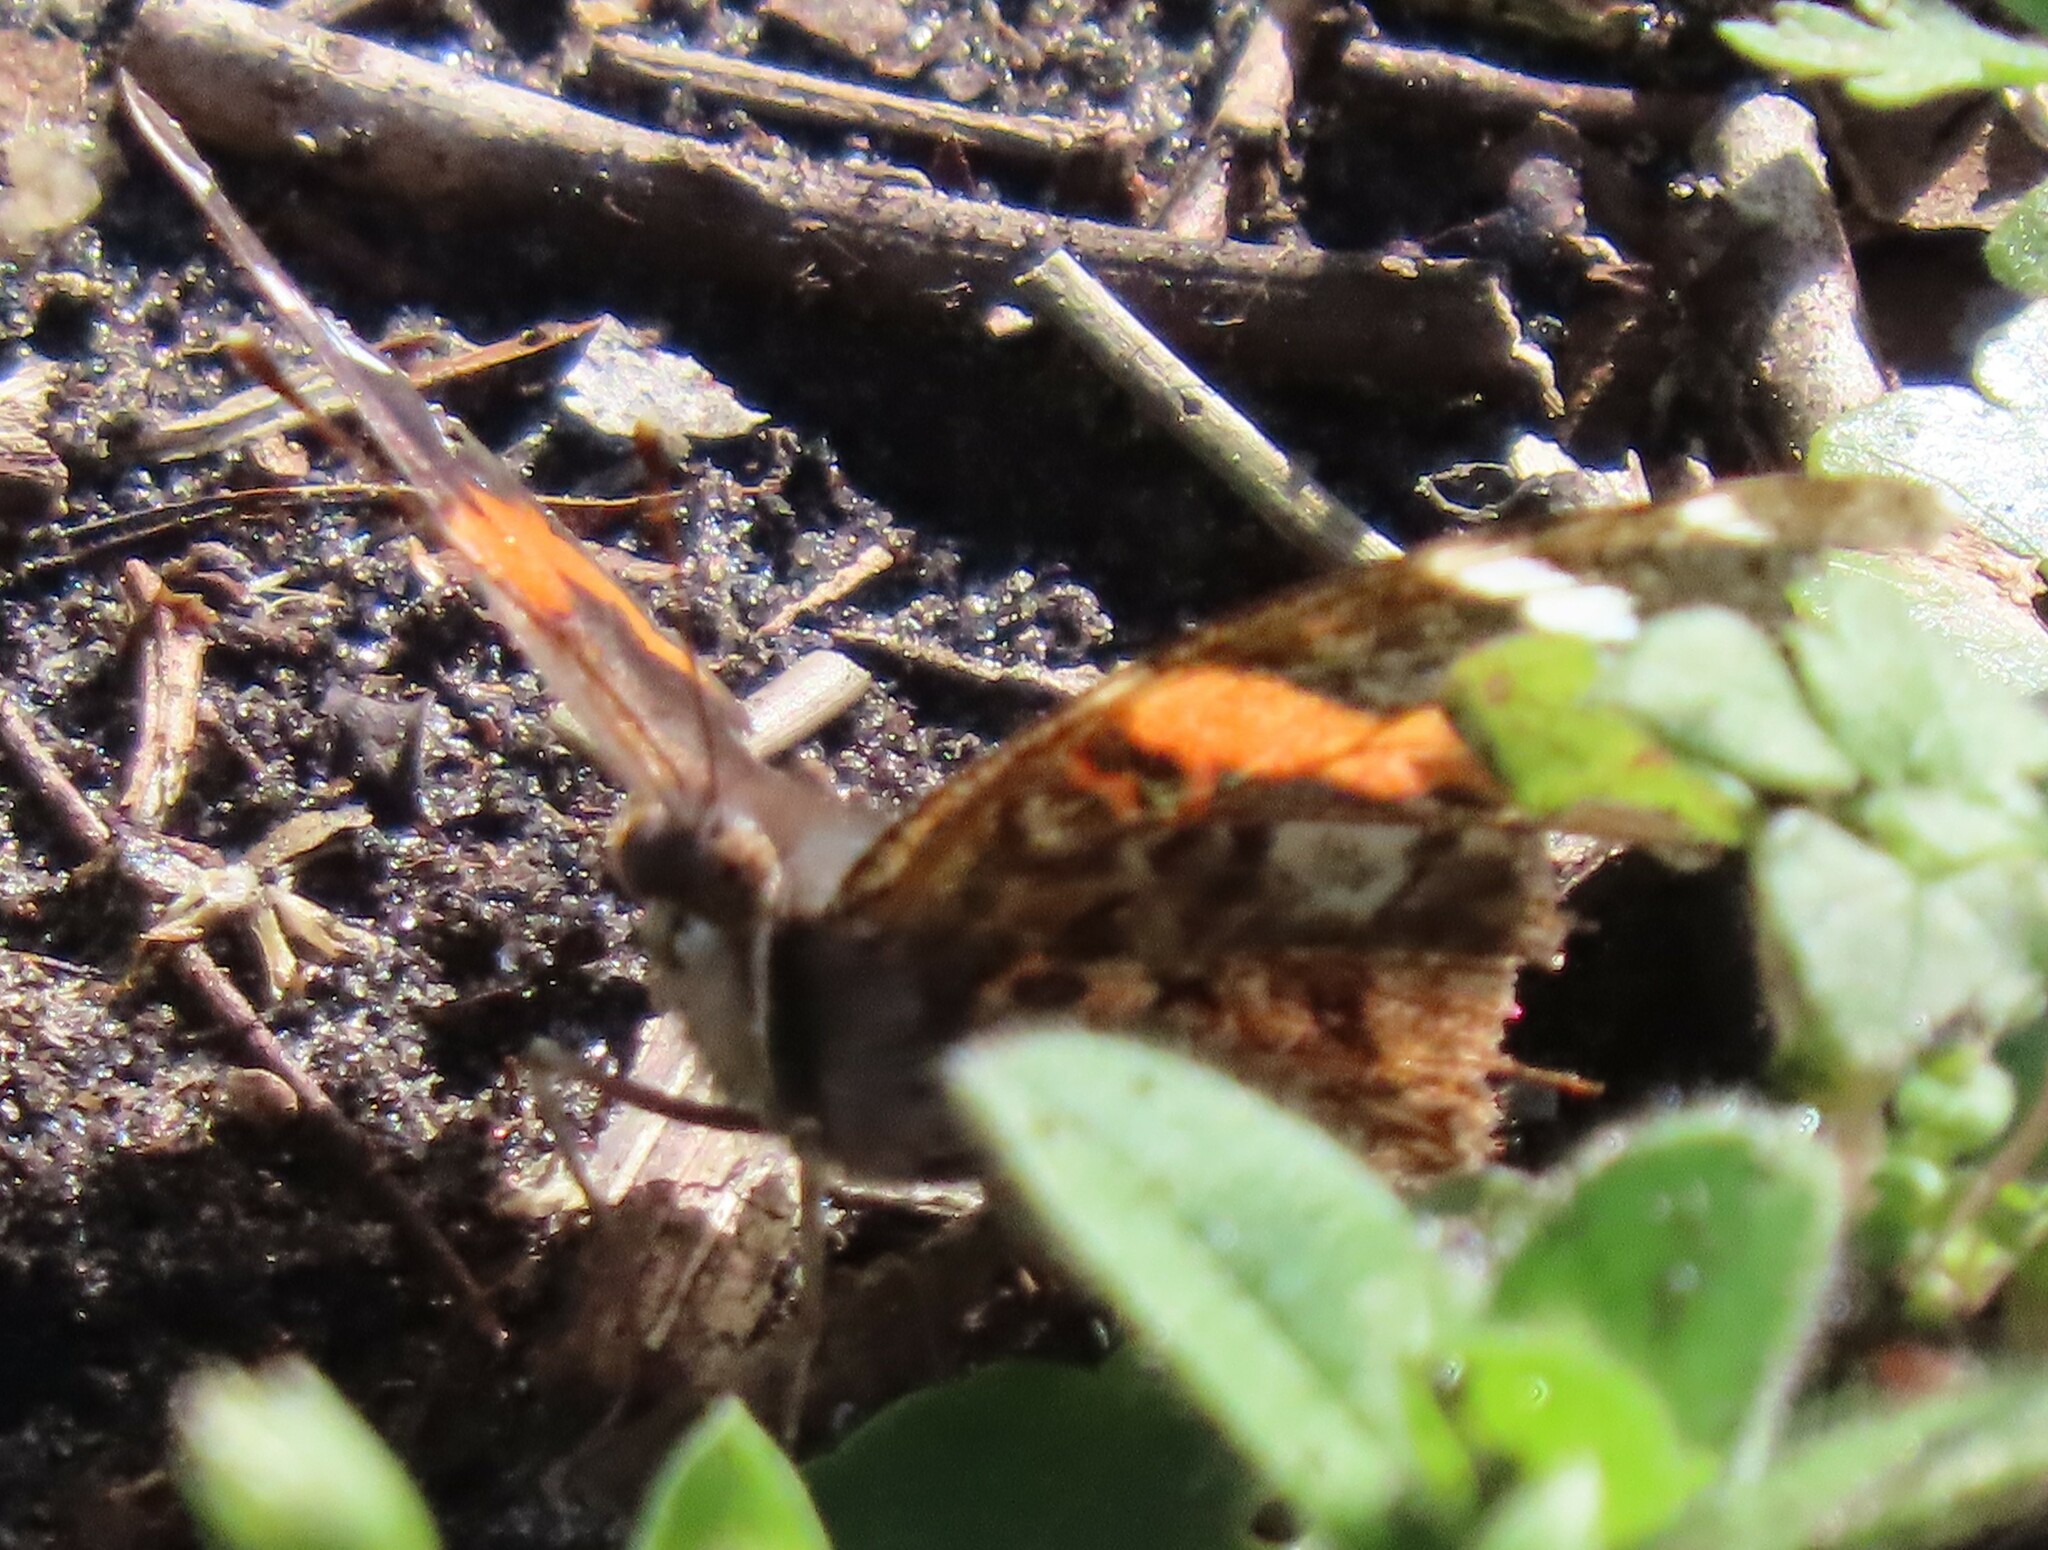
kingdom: Animalia
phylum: Arthropoda
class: Insecta
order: Lepidoptera
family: Nymphalidae
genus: Vanessa
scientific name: Vanessa atalanta
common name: Red admiral
